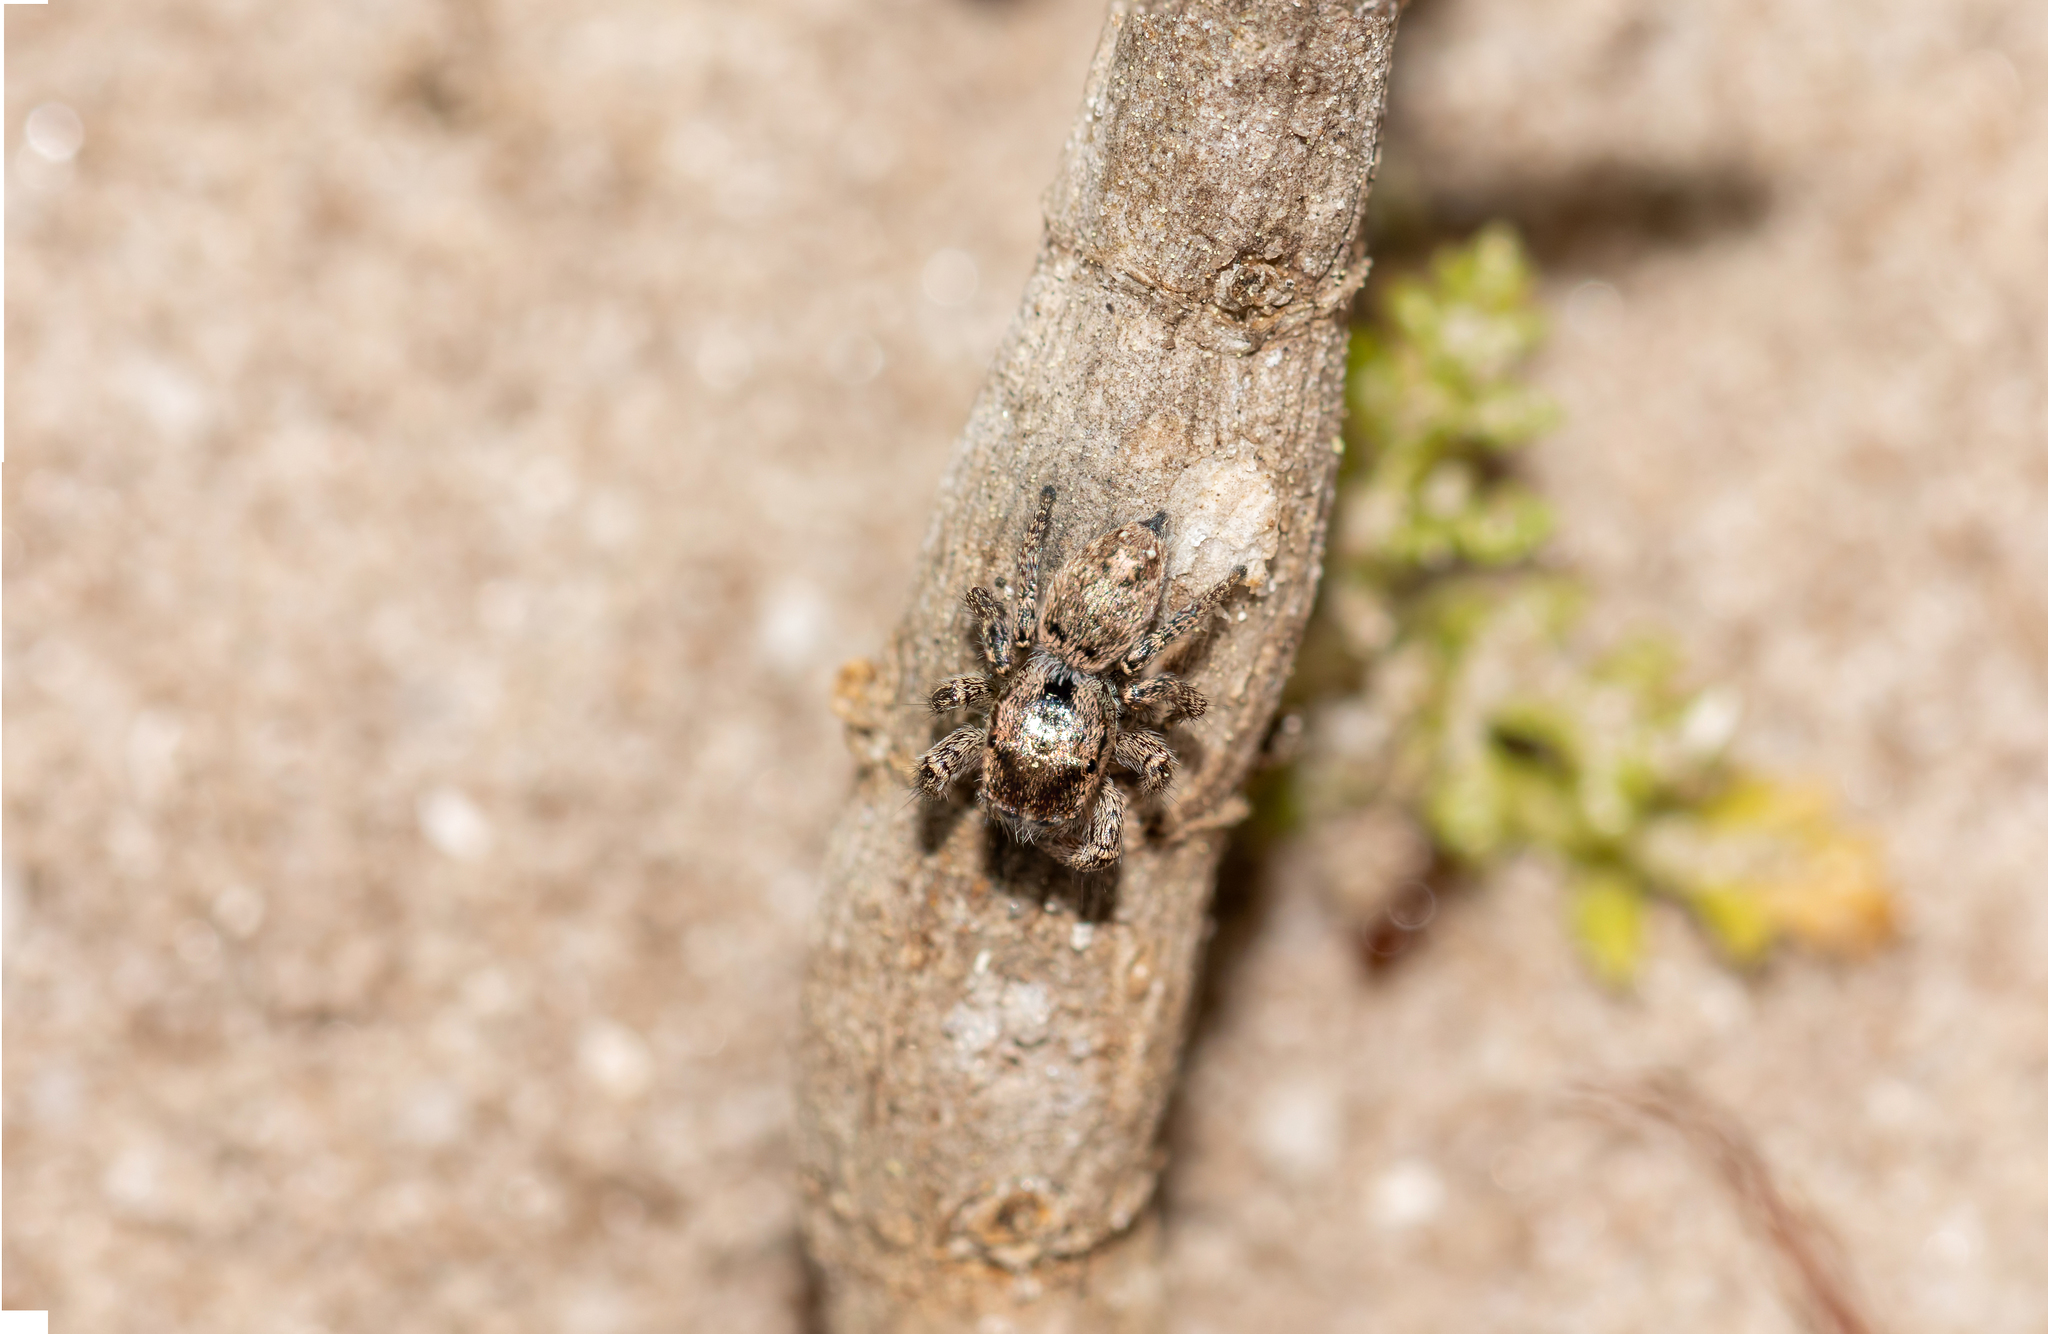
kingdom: Animalia
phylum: Arthropoda
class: Arachnida
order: Araneae
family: Salticidae
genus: Habronattus
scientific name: Habronattus brunneus
